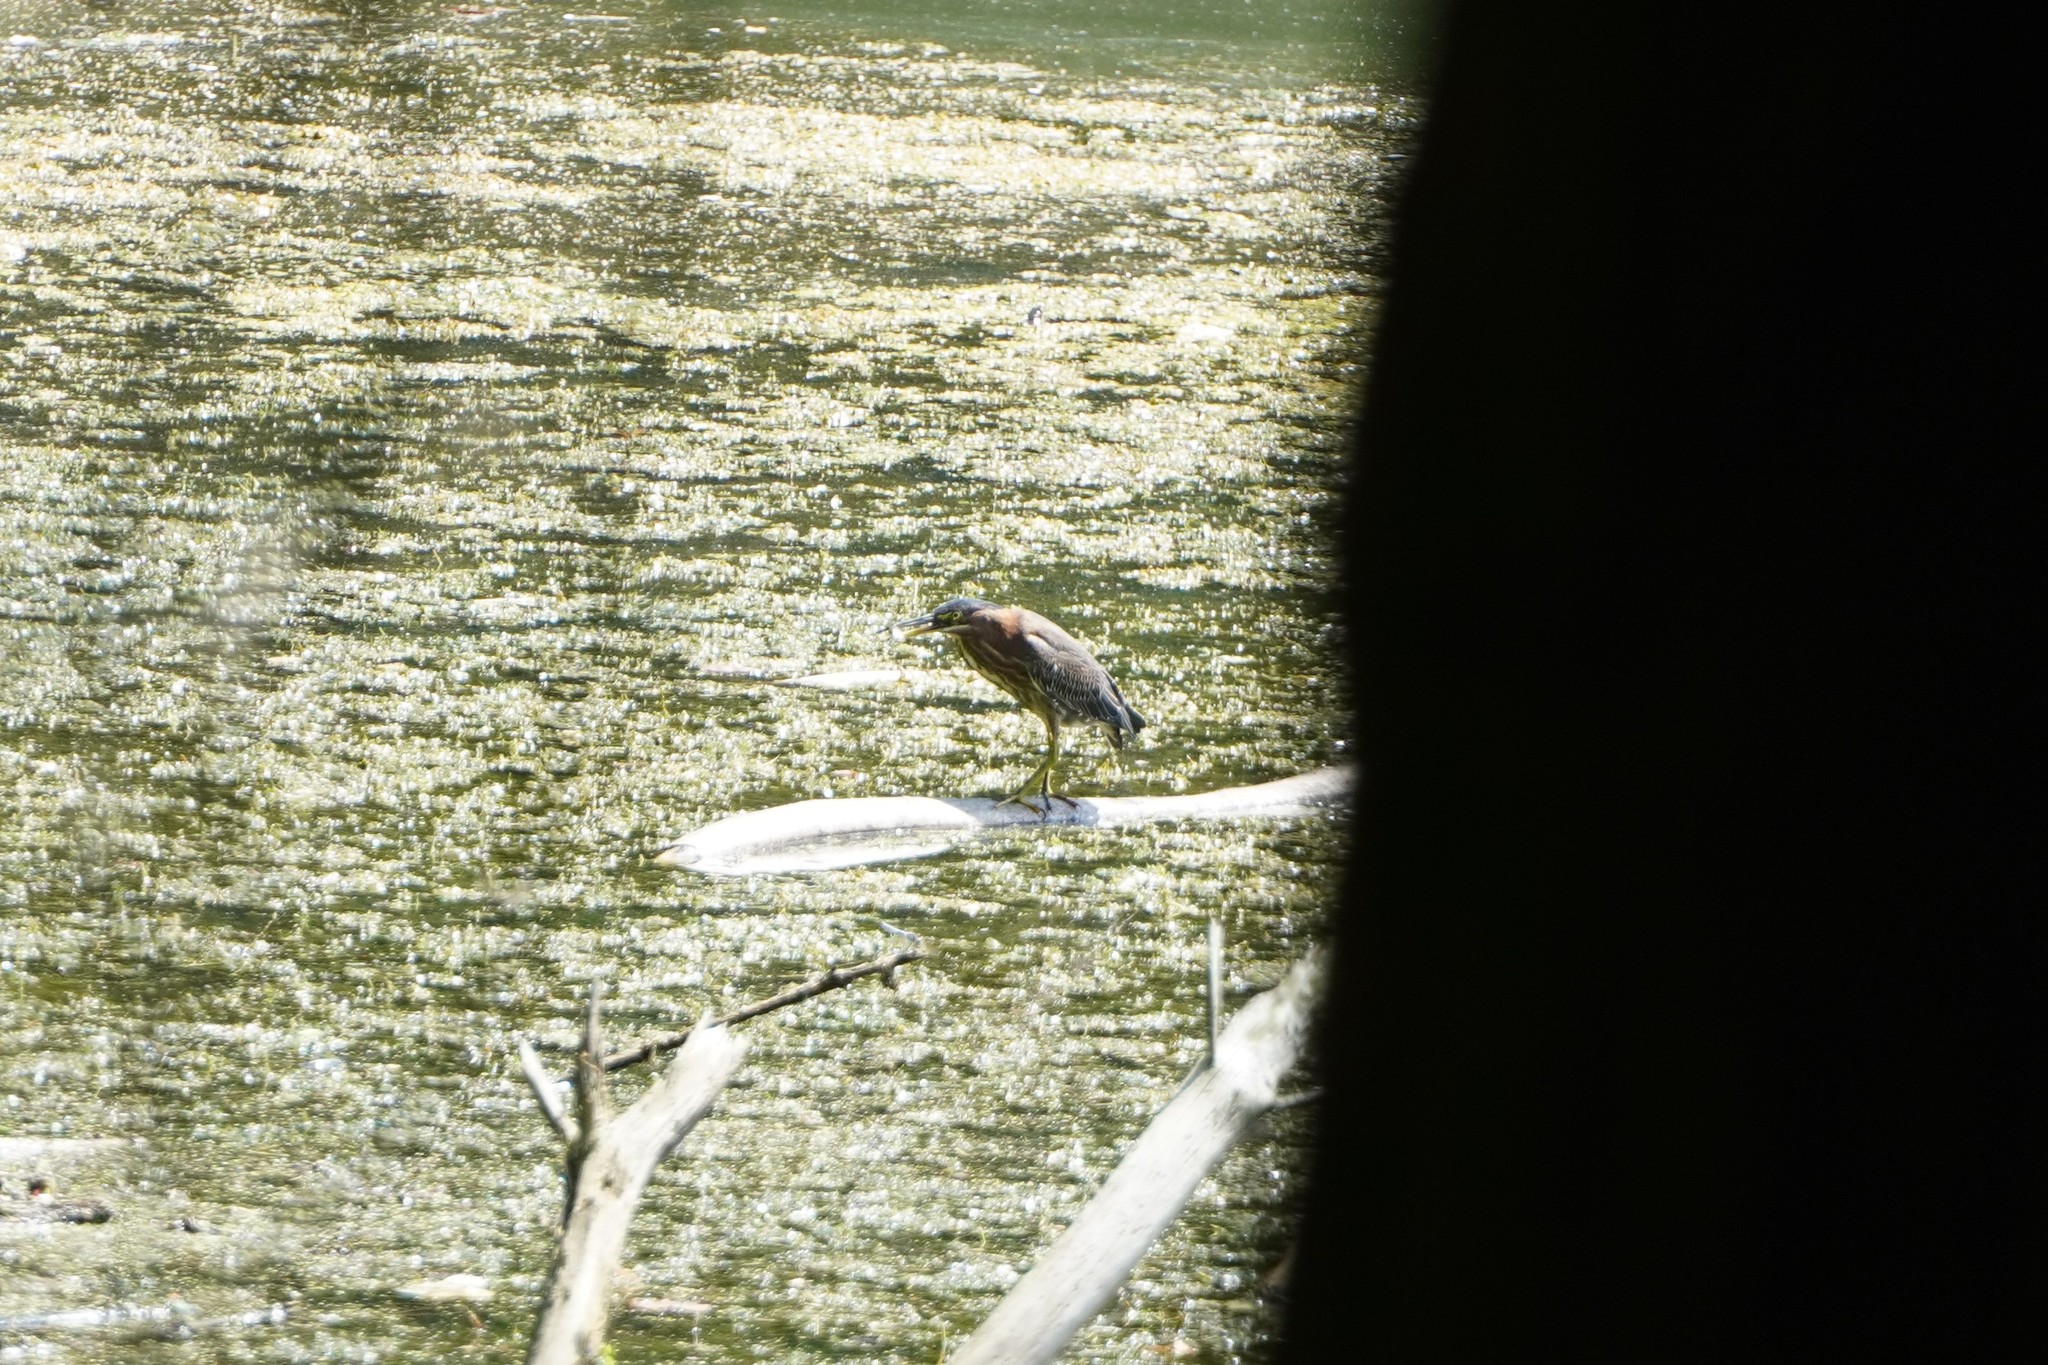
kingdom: Animalia
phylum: Chordata
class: Aves
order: Pelecaniformes
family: Ardeidae
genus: Butorides
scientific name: Butorides virescens
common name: Green heron
